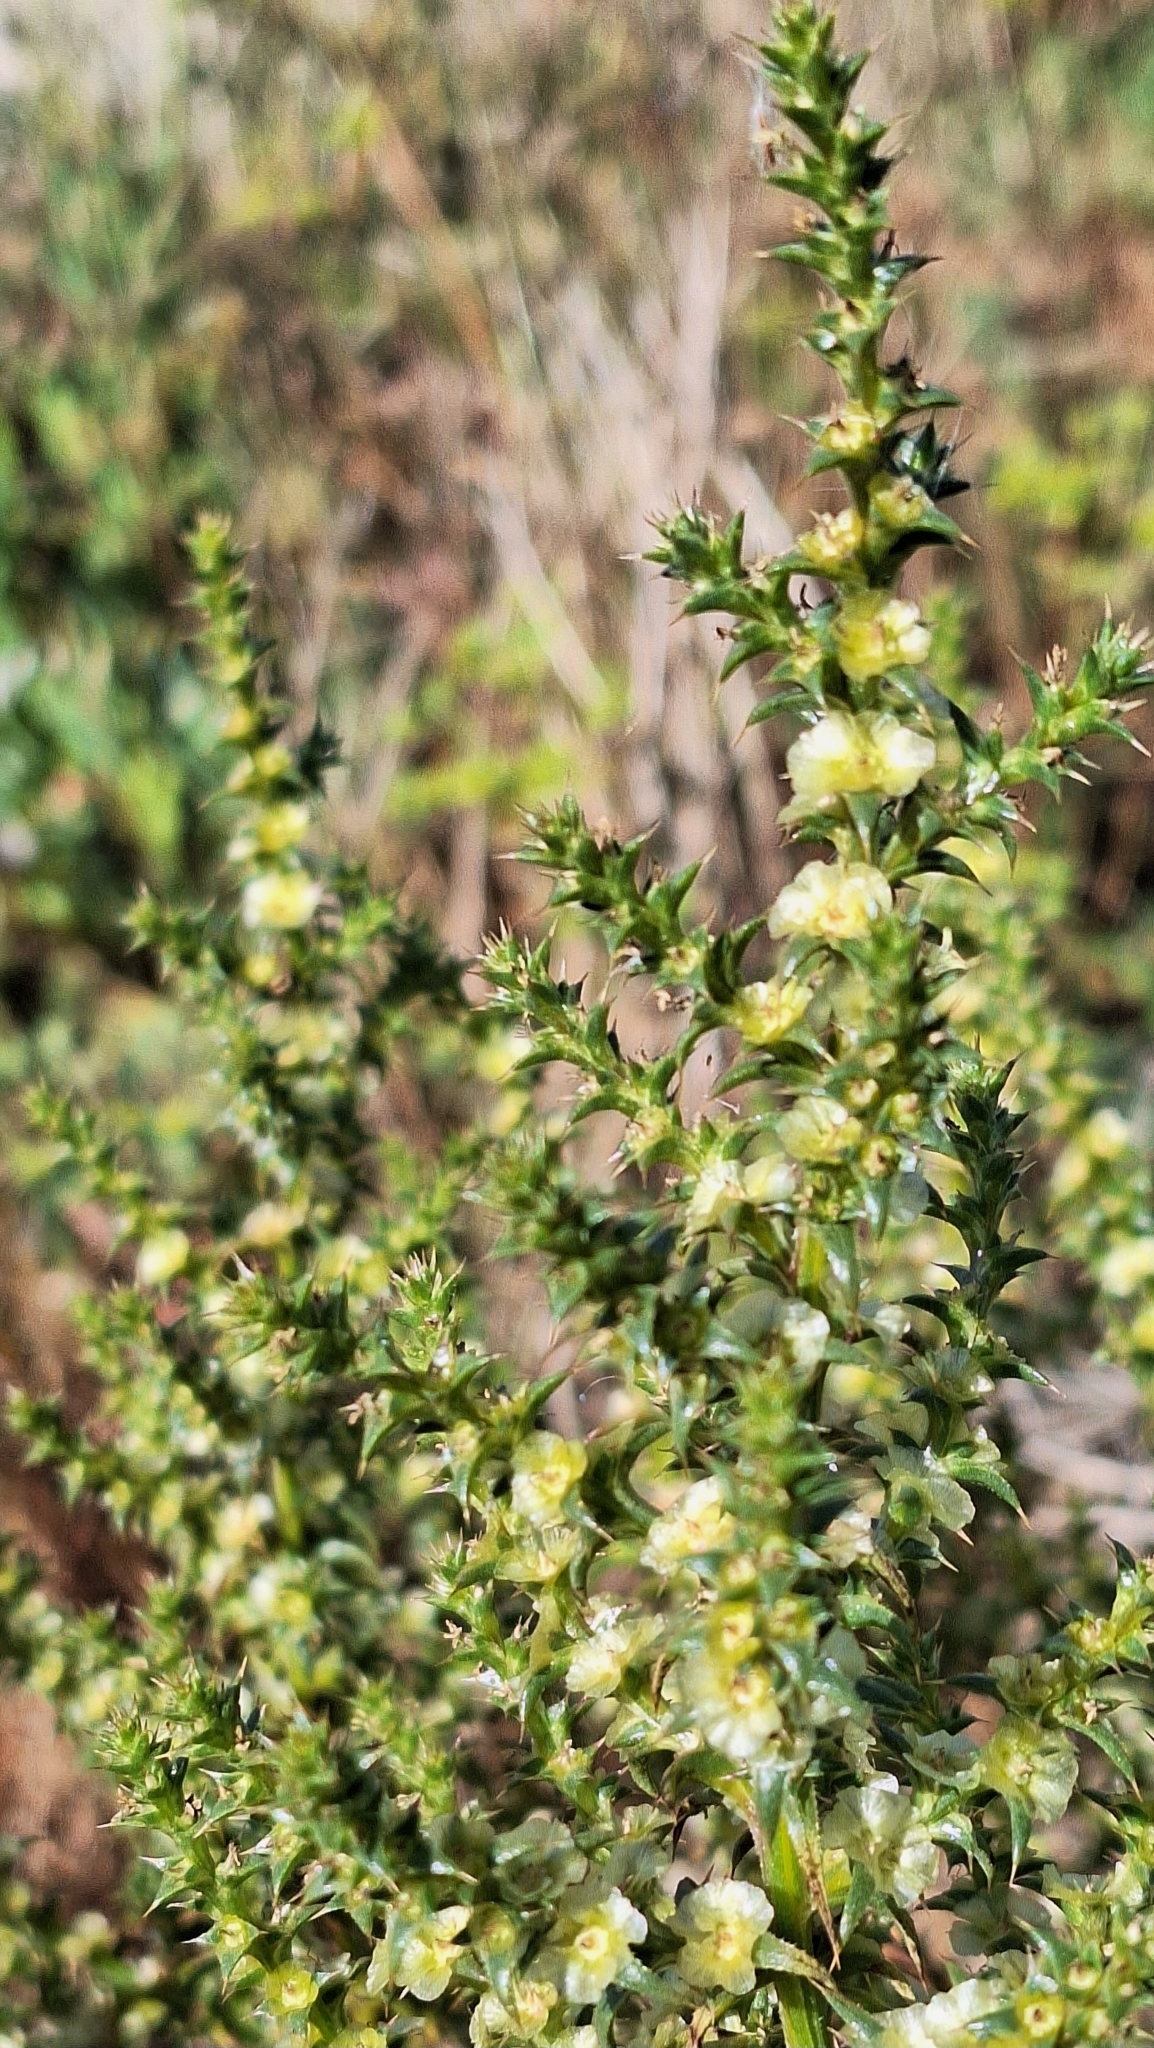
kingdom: Plantae
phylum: Tracheophyta
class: Magnoliopsida
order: Caryophyllales
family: Amaranthaceae
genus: Salsola
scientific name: Salsola australis
